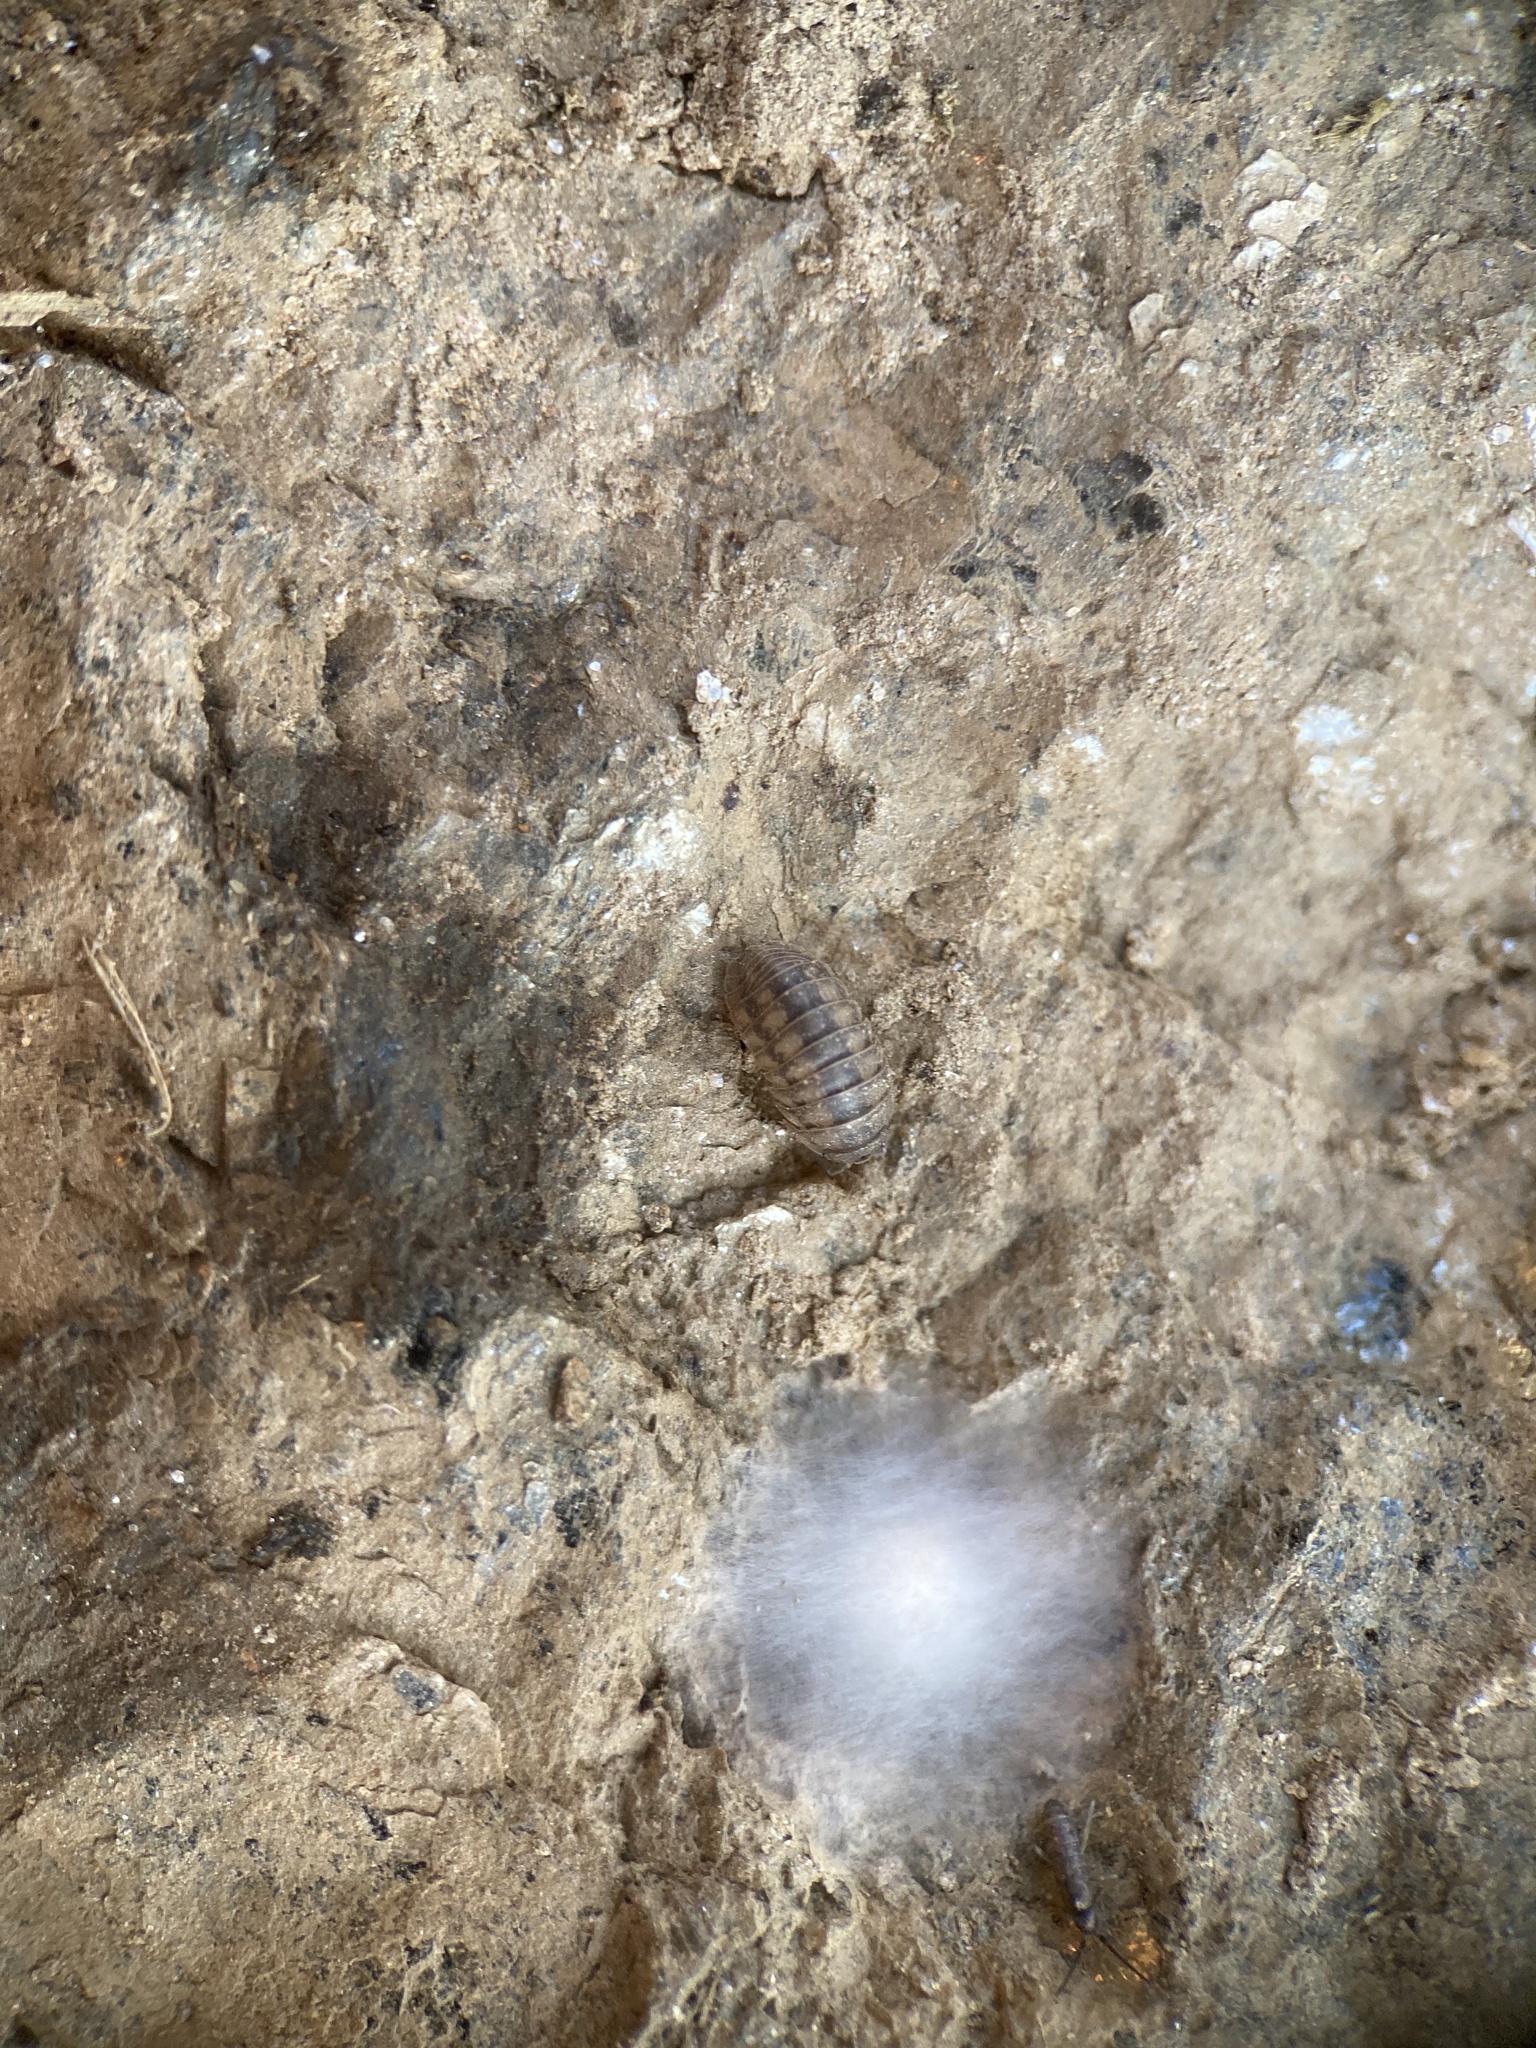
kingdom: Animalia
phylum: Arthropoda
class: Malacostraca
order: Isopoda
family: Armadillidiidae
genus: Armadillidium
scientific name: Armadillidium nasatum
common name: Isopod
